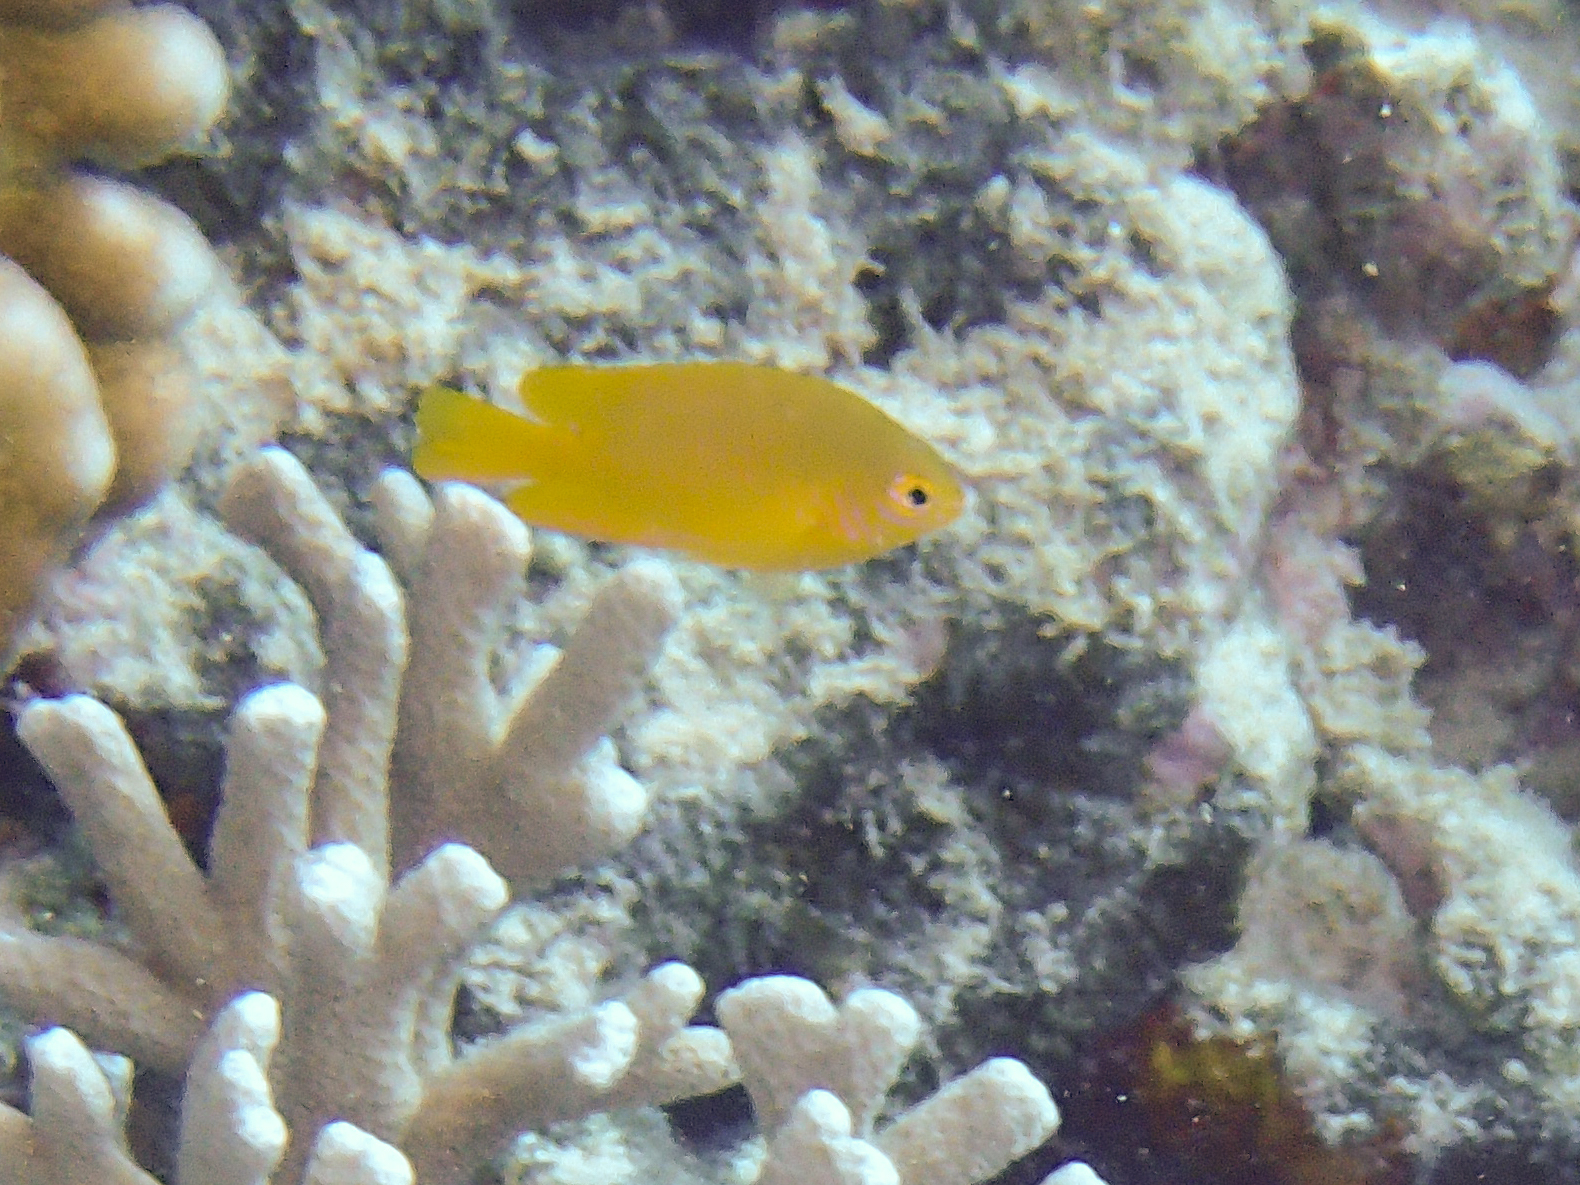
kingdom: Animalia
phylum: Chordata
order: Perciformes
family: Pomacentridae
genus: Pomacentrus
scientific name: Pomacentrus moluccensis
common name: Lemon damsel
